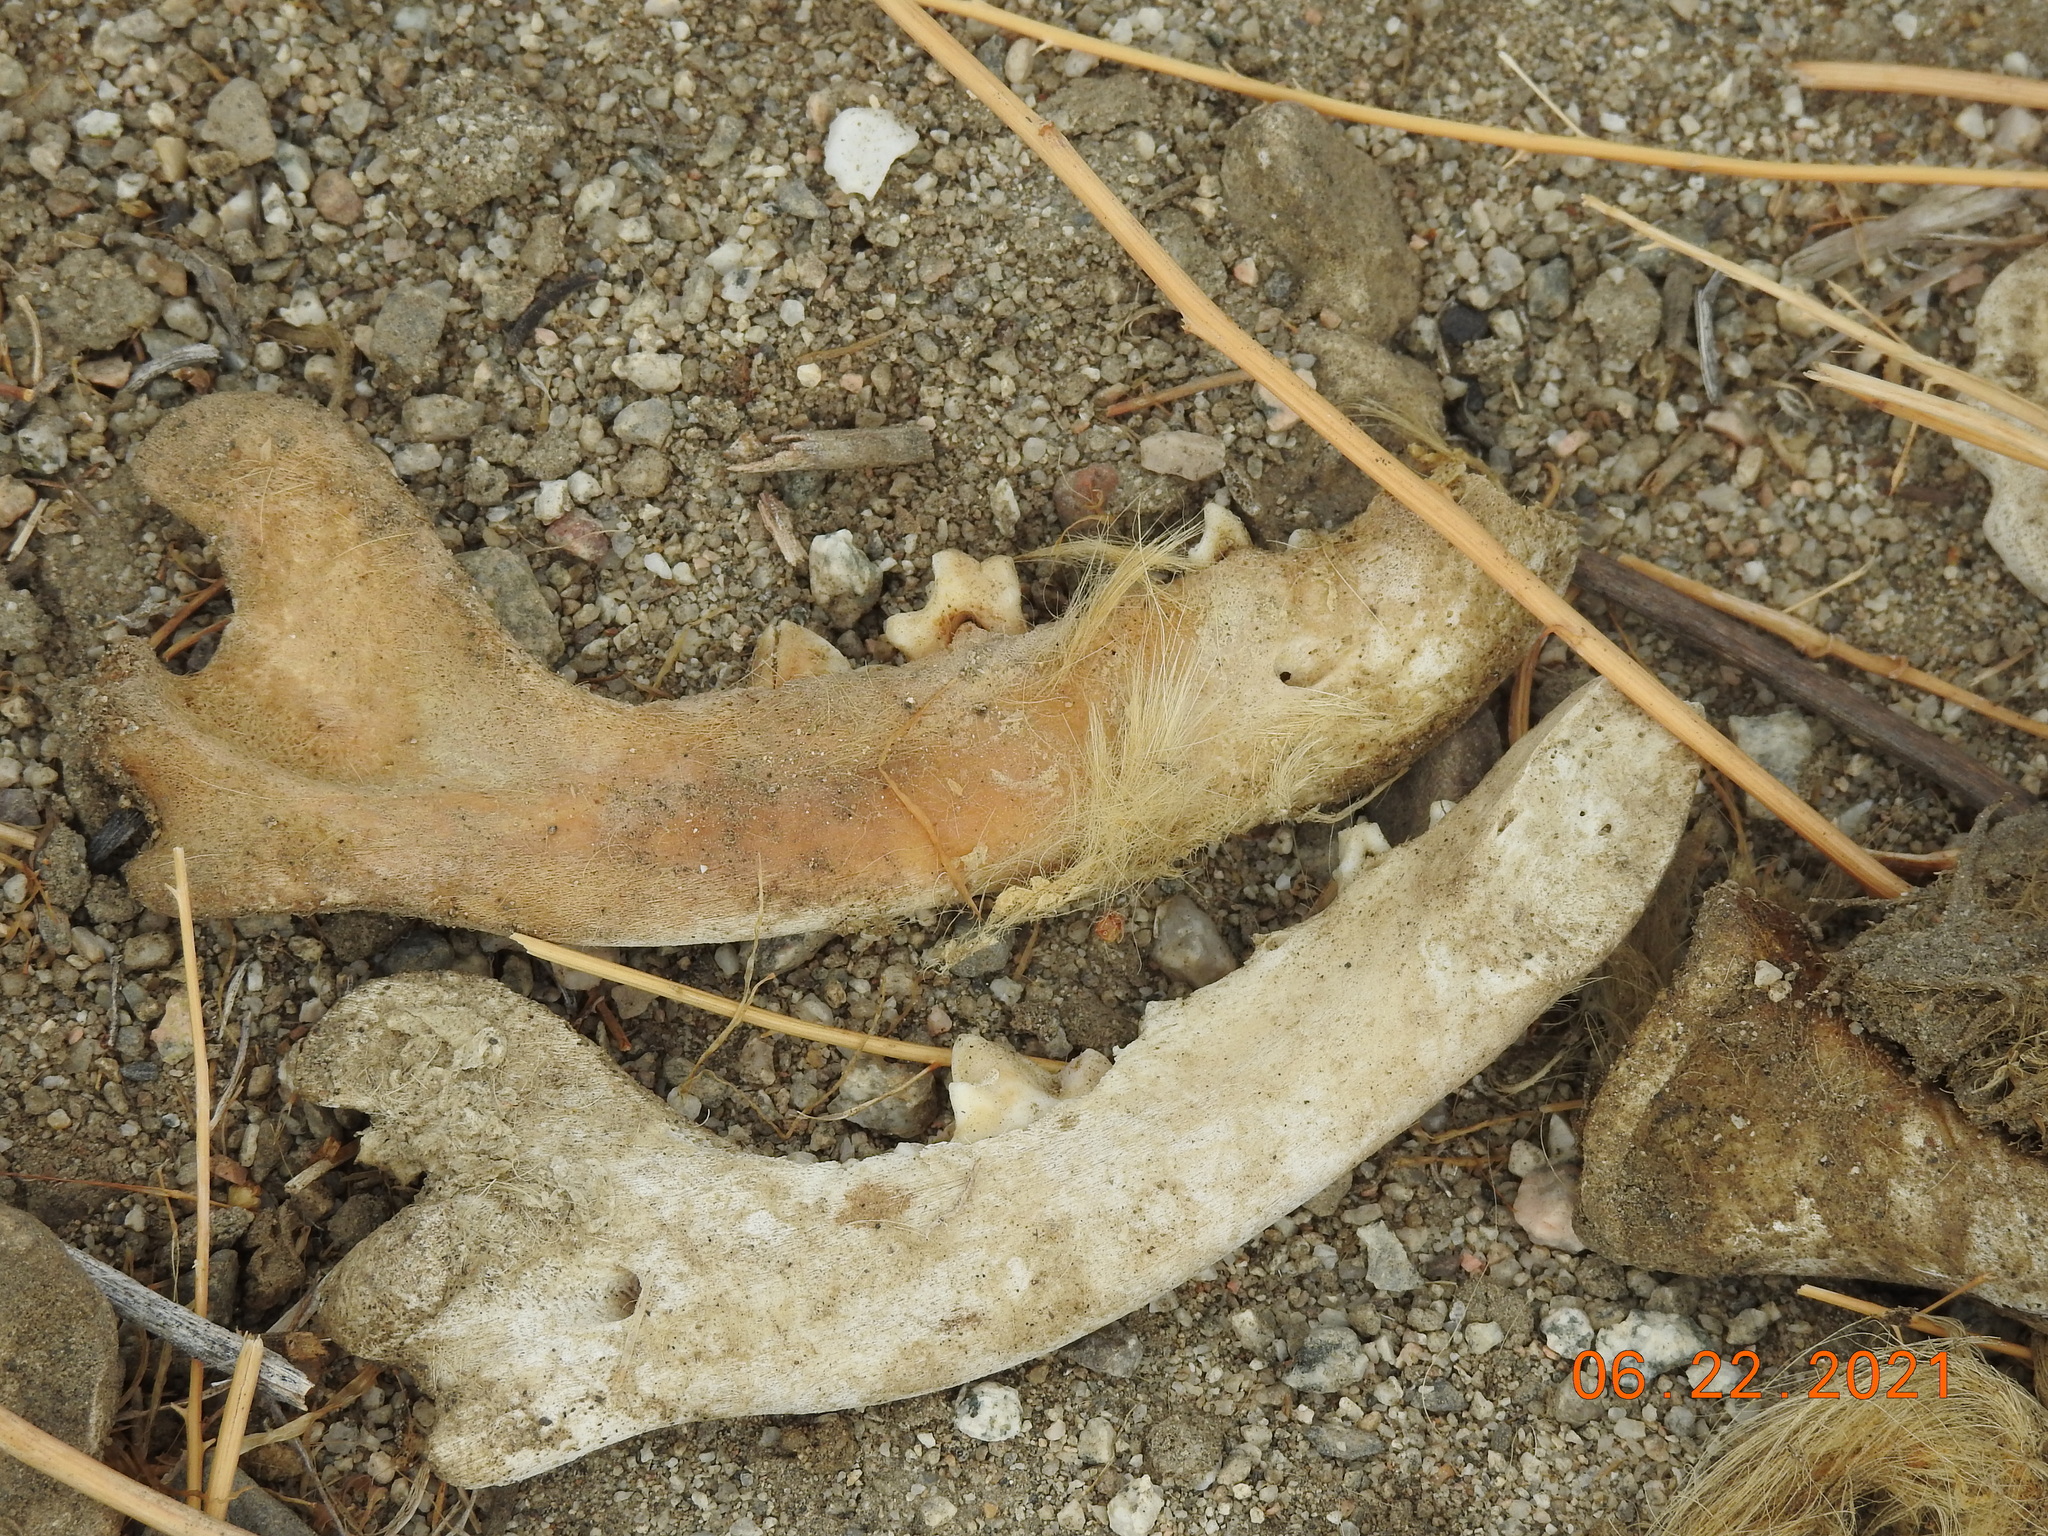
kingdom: Animalia
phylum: Chordata
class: Mammalia
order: Carnivora
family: Canidae
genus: Canis
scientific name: Canis lupus
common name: Gray wolf
